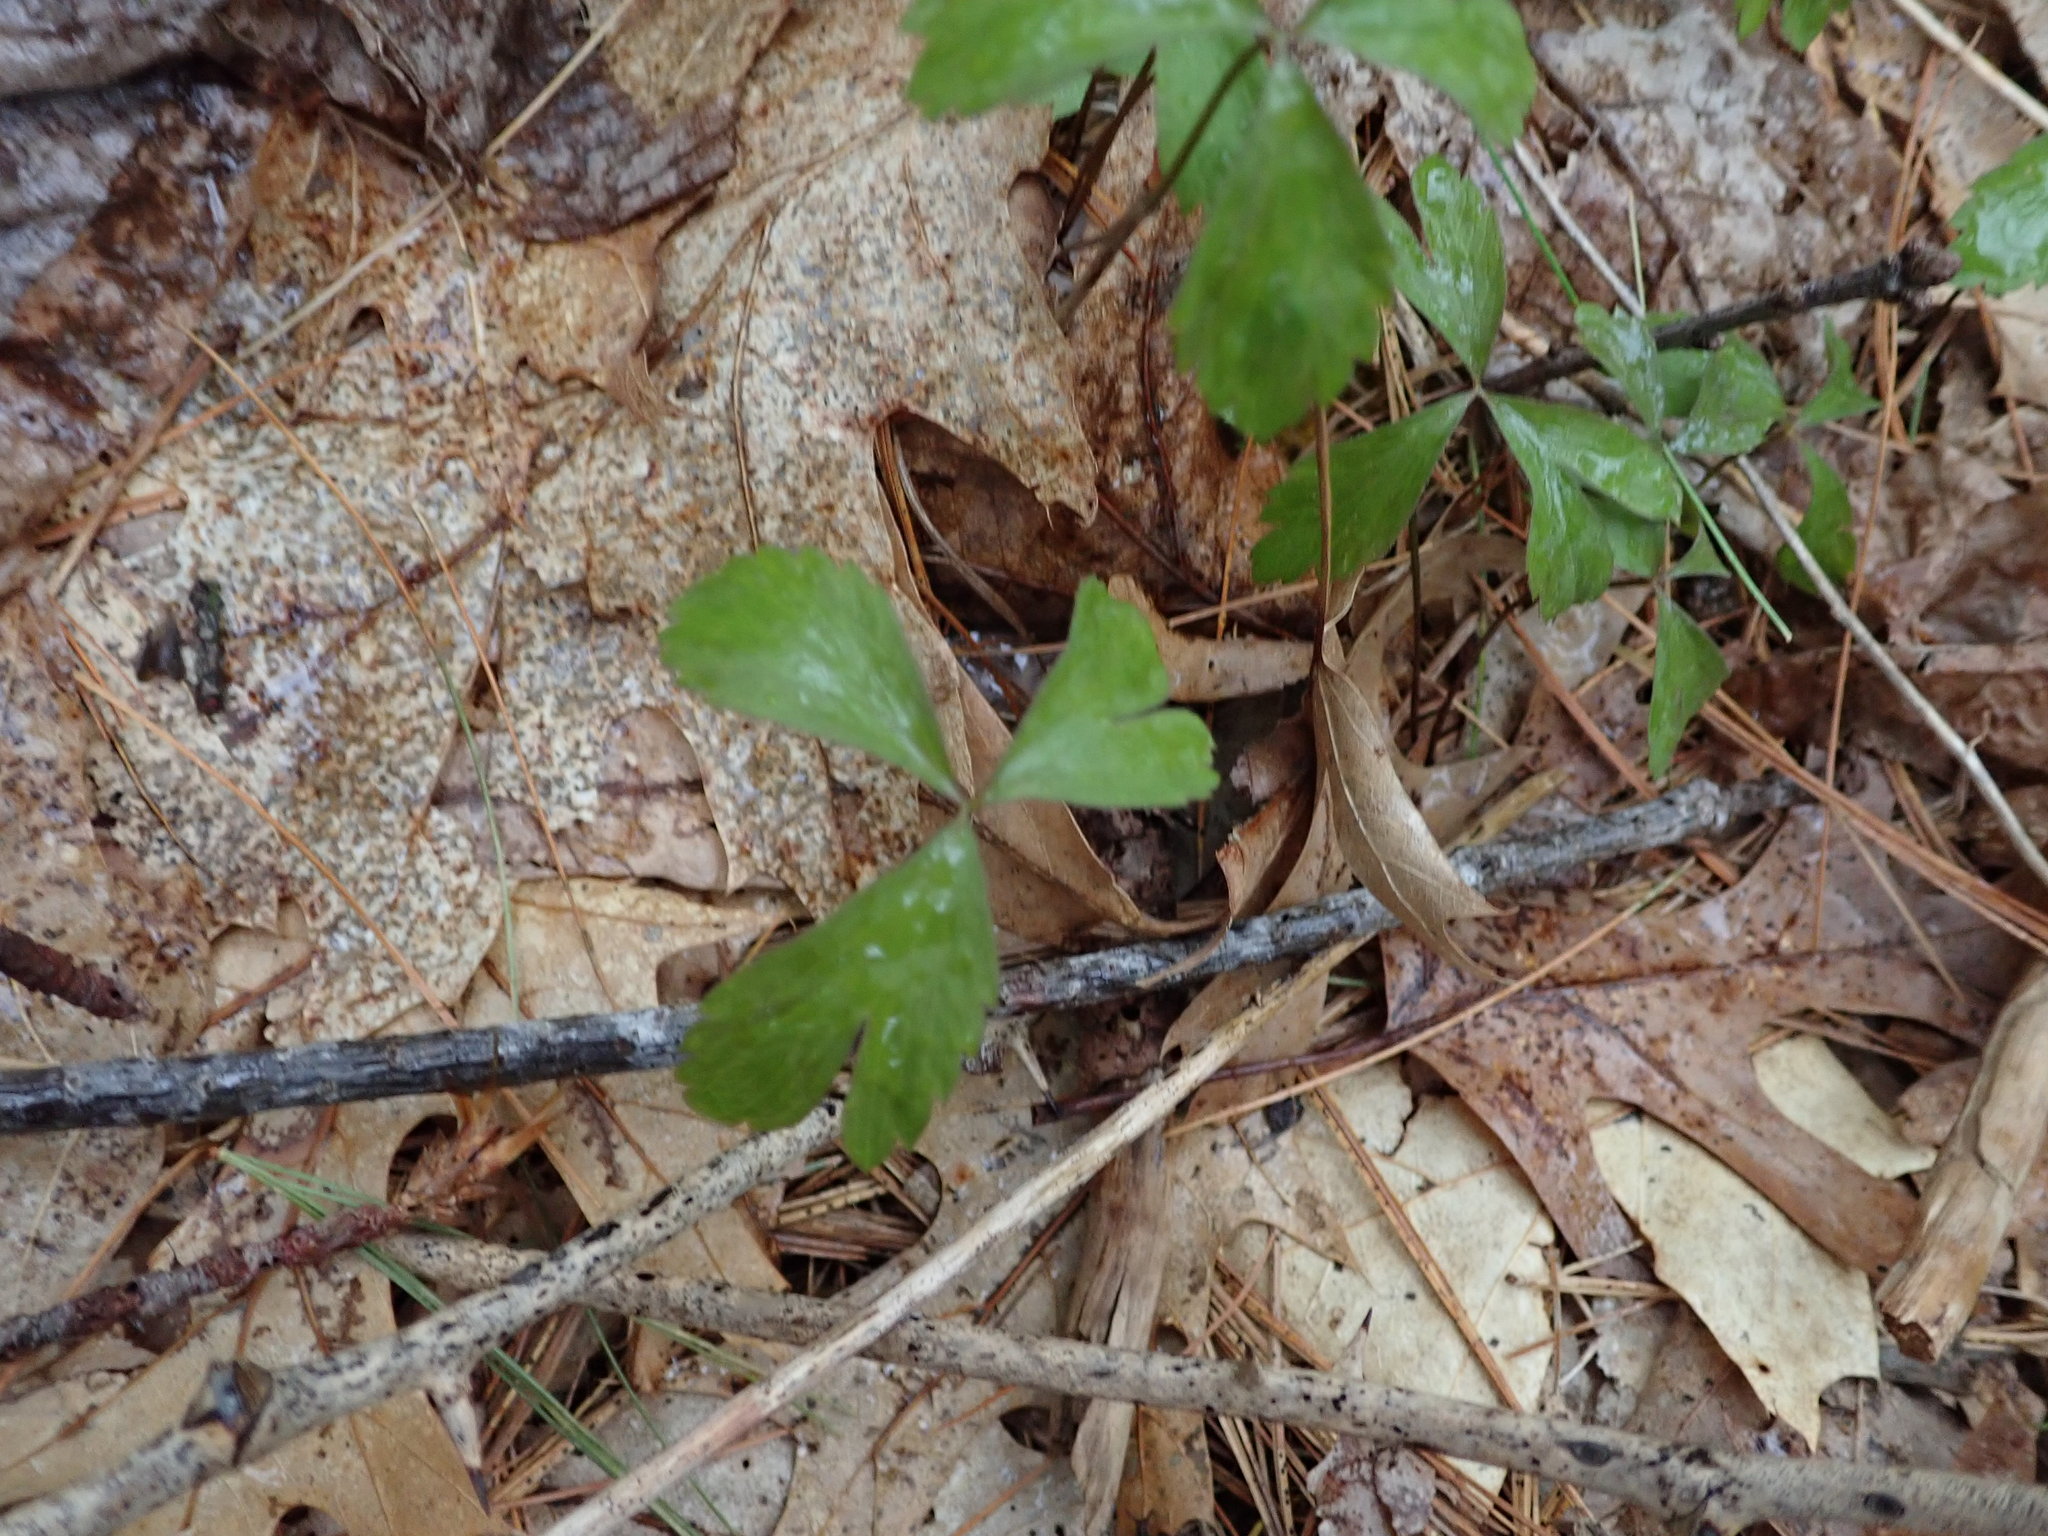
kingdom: Plantae
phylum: Tracheophyta
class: Magnoliopsida
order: Ranunculales
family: Ranunculaceae
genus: Anemone
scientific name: Anemone quinquefolia
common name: Wood anemone
